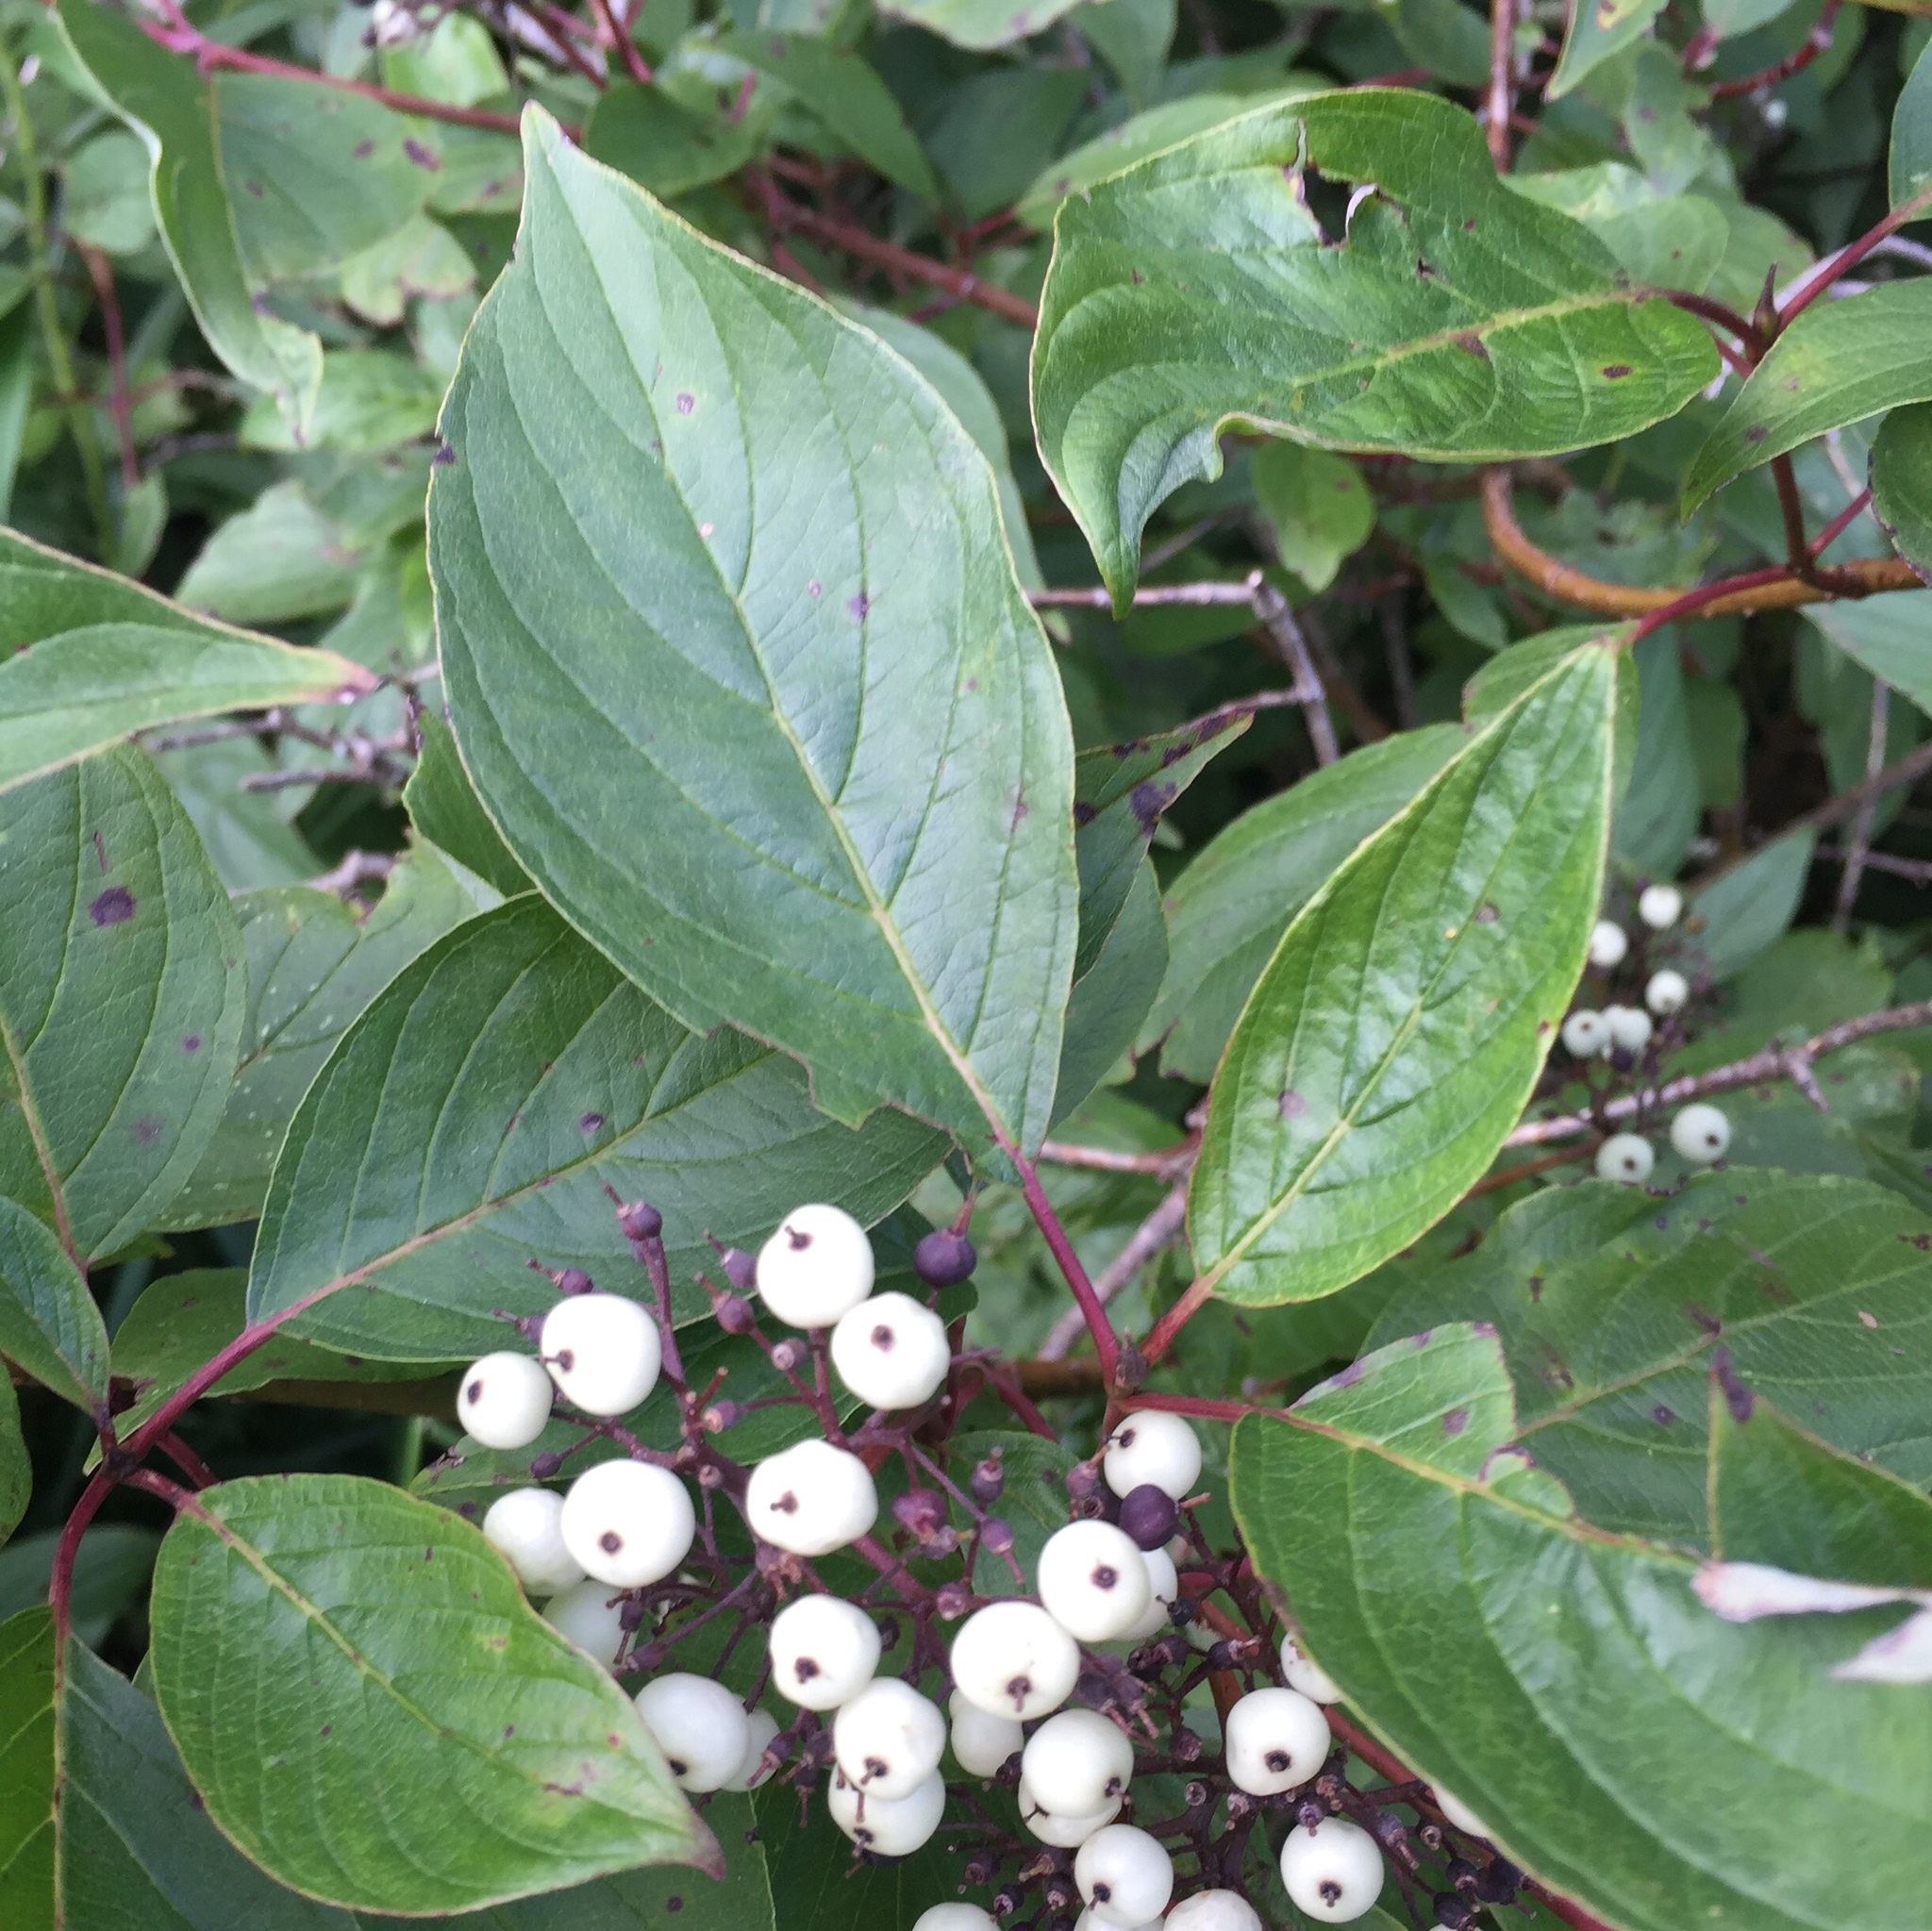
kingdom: Plantae
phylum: Tracheophyta
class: Magnoliopsida
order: Cornales
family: Cornaceae
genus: Cornus
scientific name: Cornus sericea
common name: Red-osier dogwood
